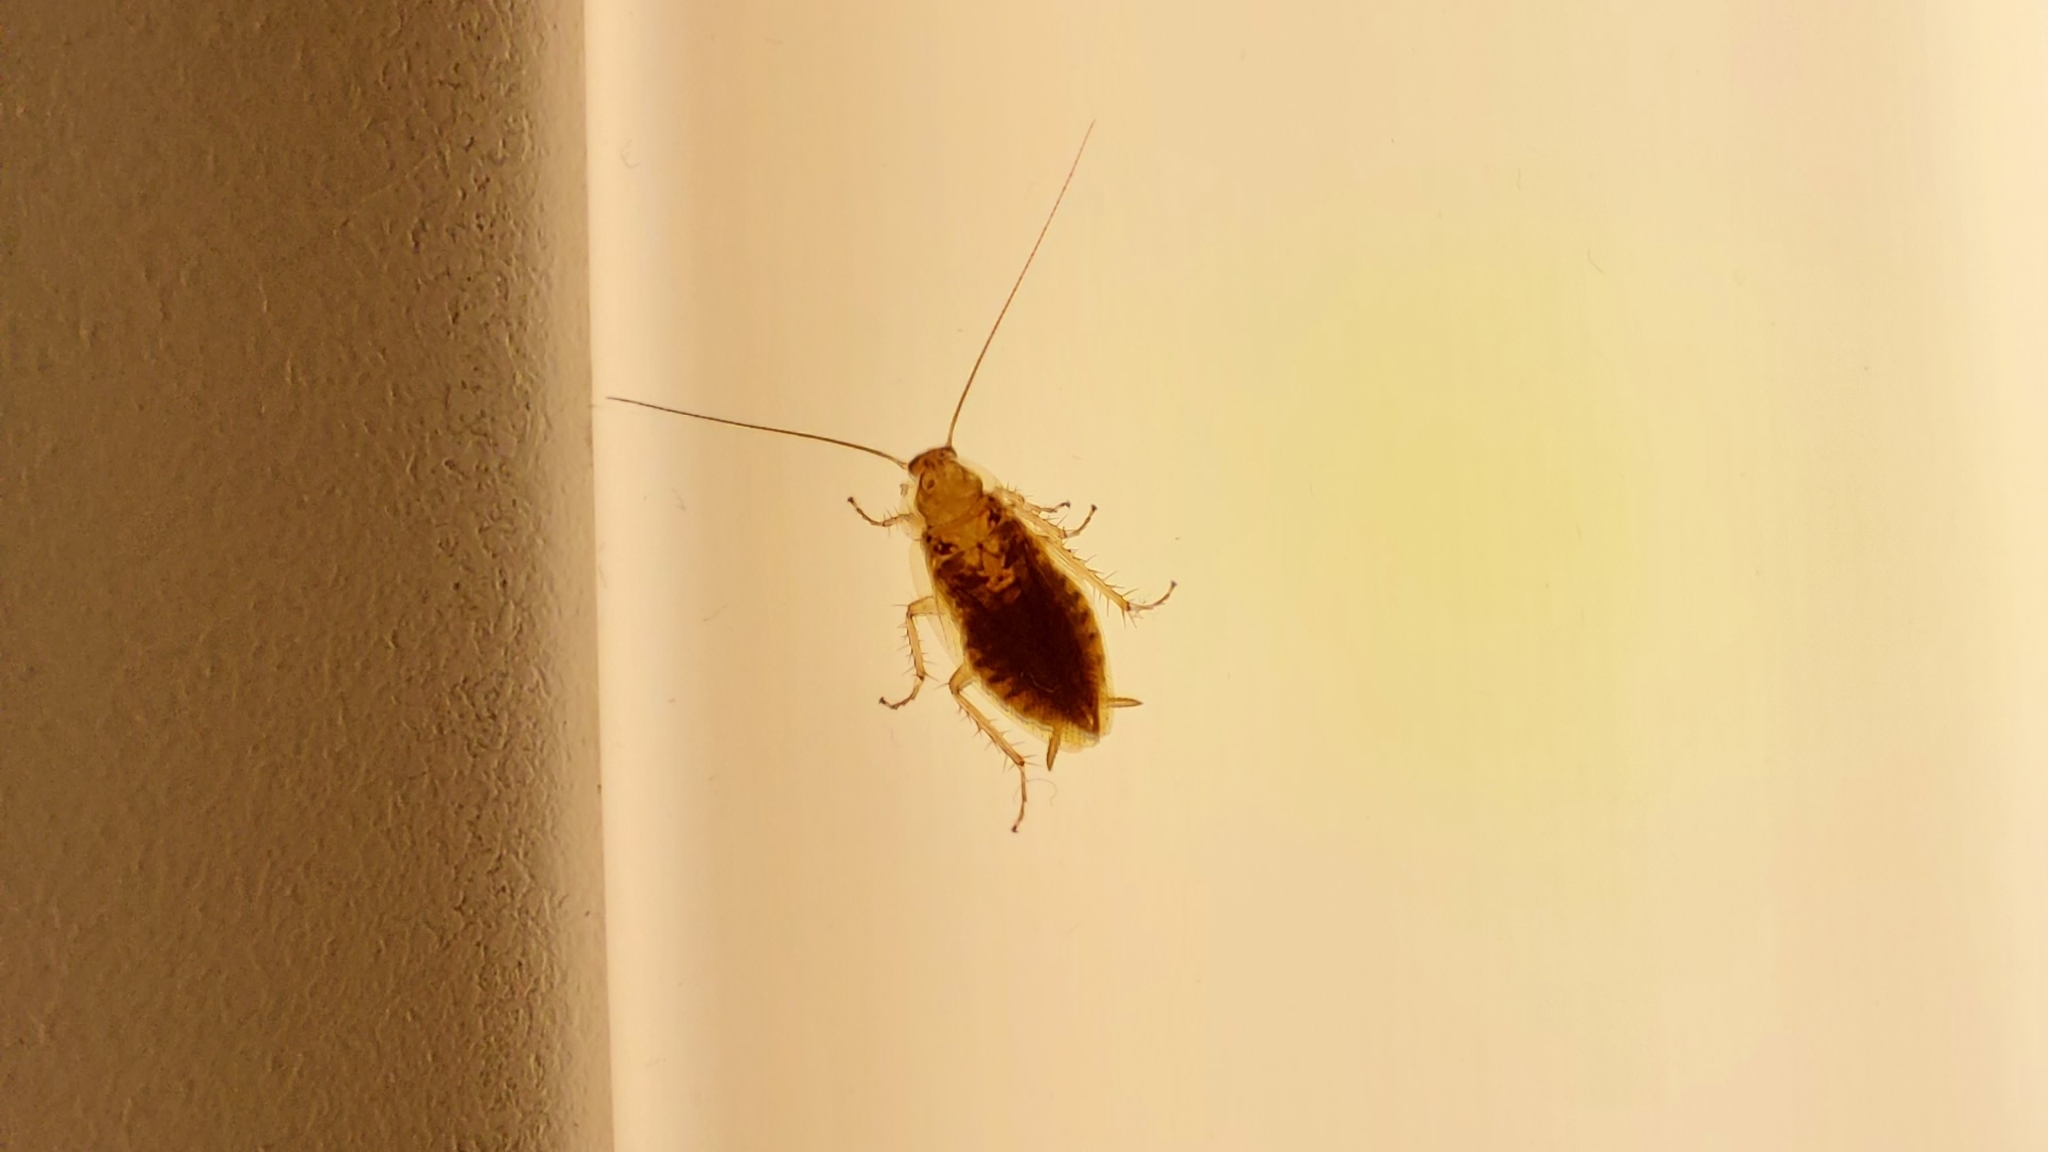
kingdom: Animalia
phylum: Arthropoda
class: Insecta
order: Blattodea
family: Ectobiidae
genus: Ectobius
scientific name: Ectobius vittiventris
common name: Garden cockroach
